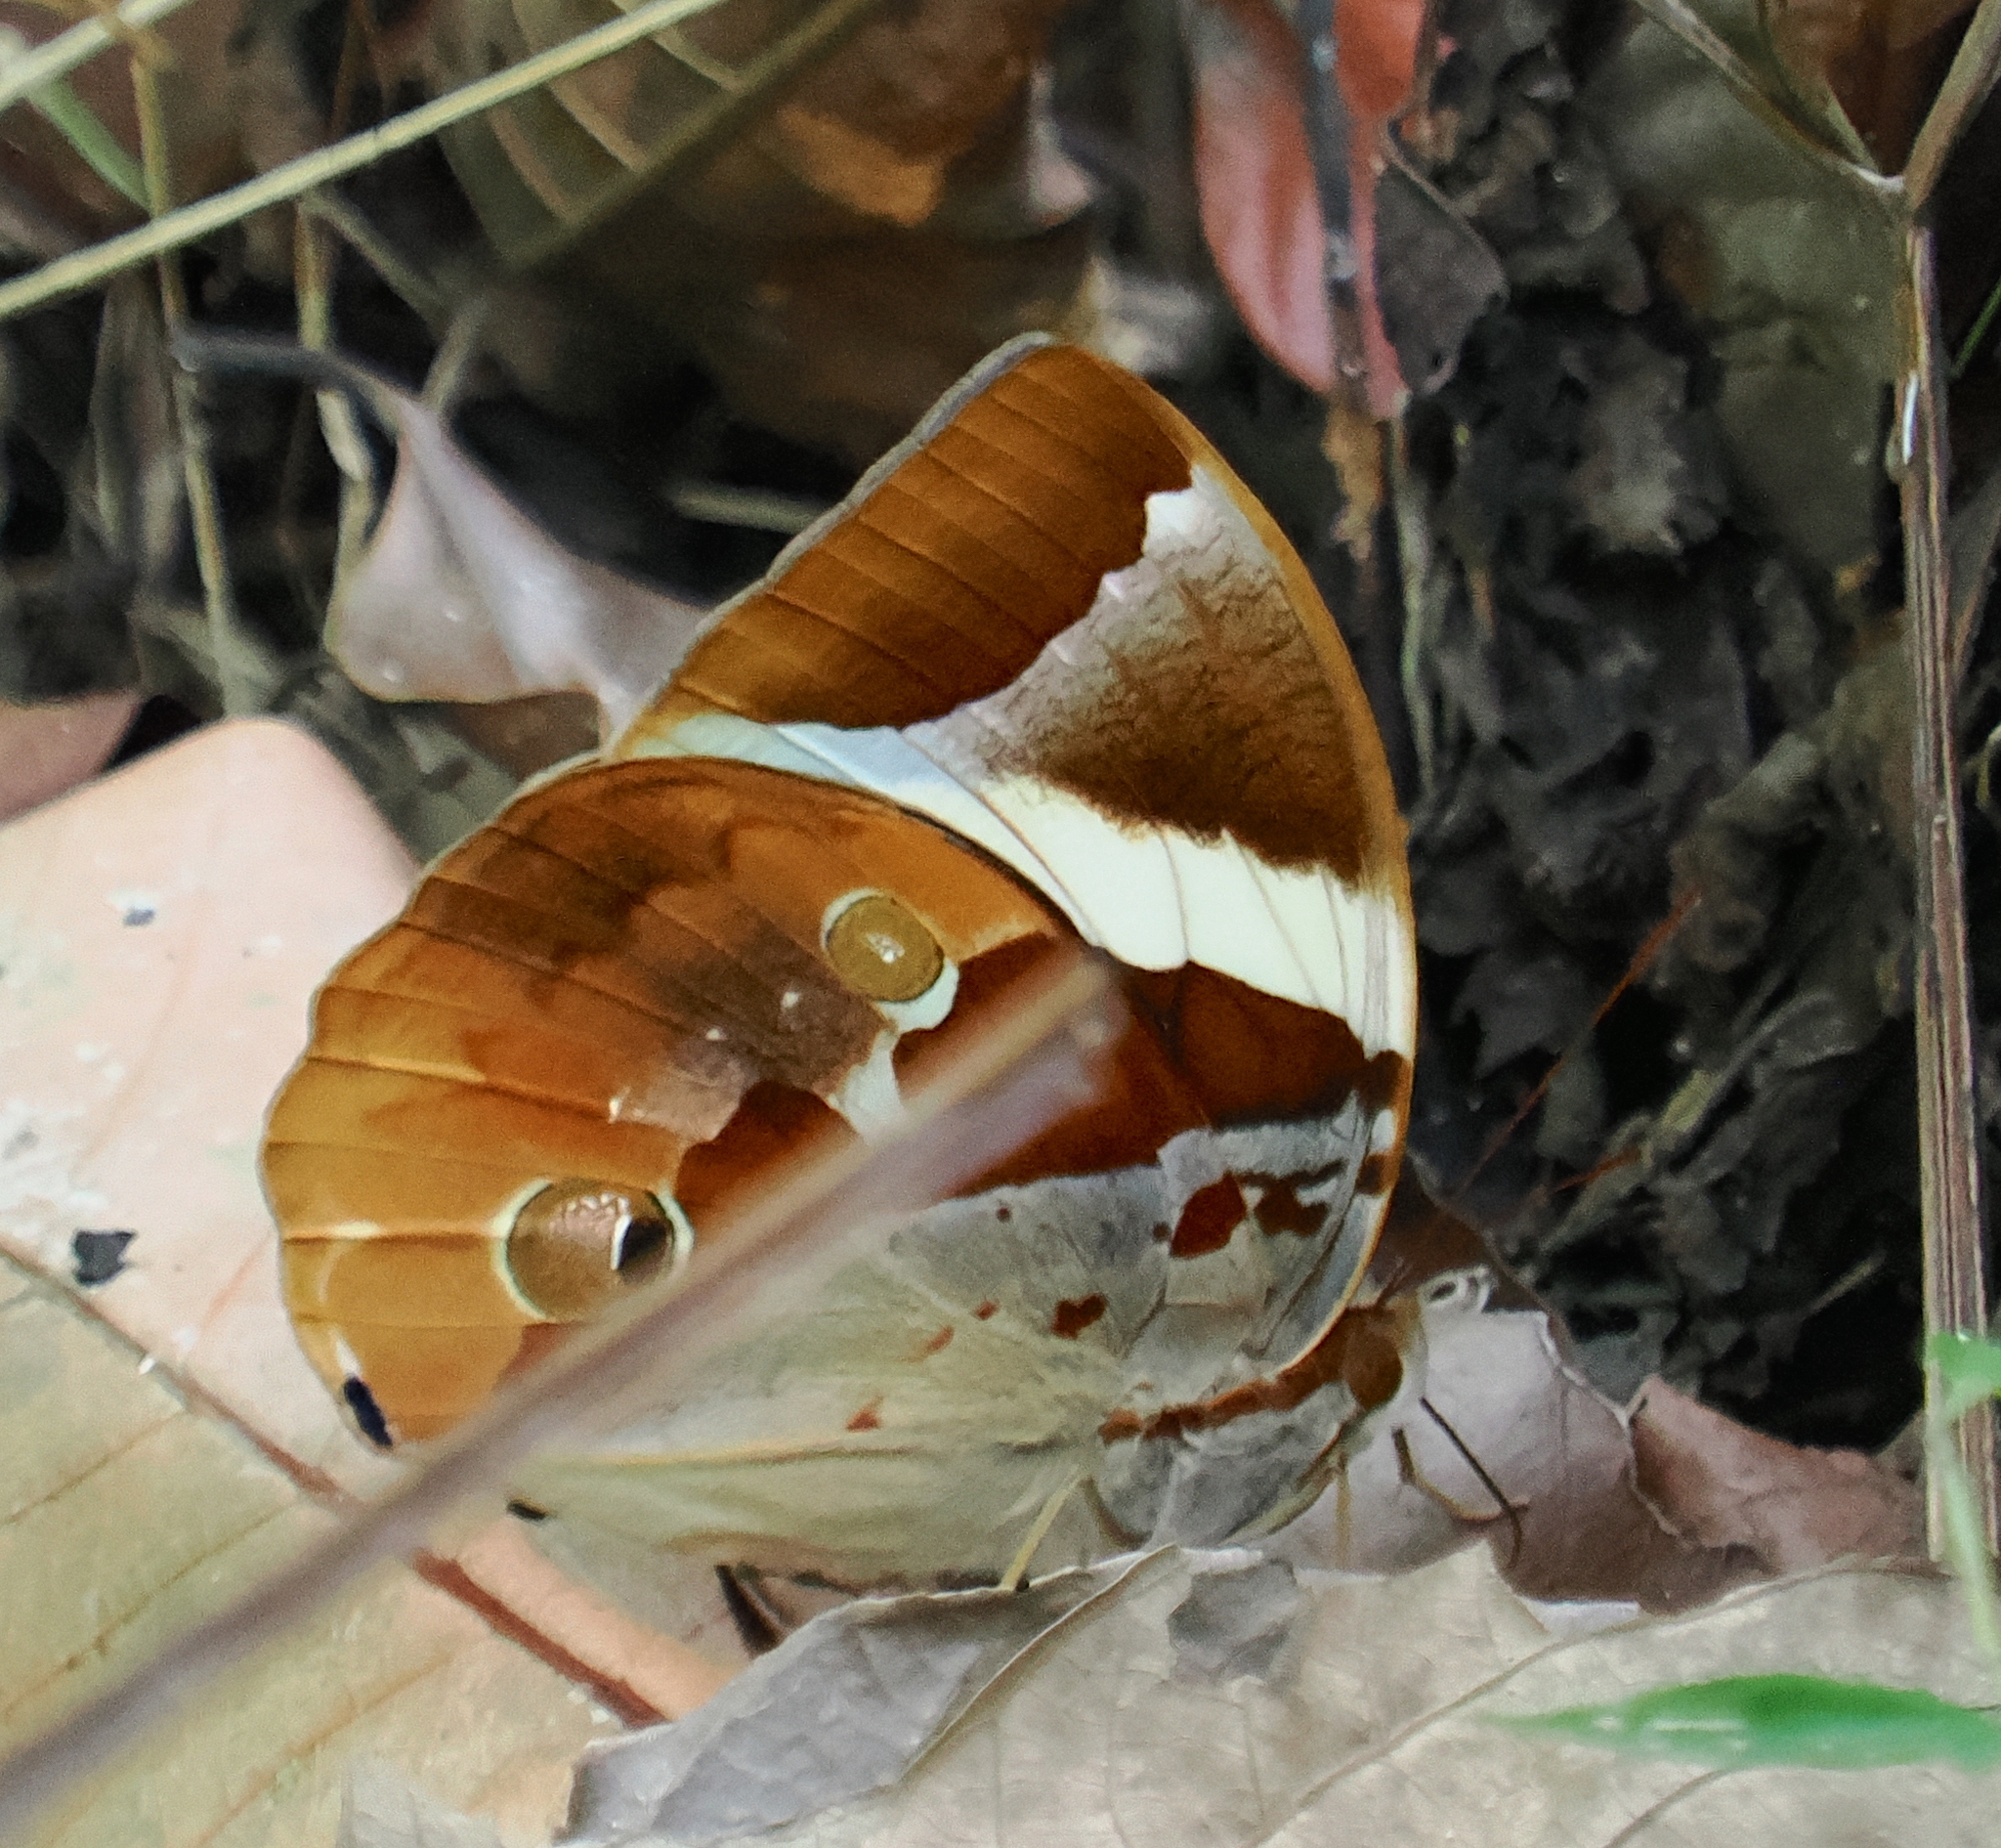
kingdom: Animalia
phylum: Arthropoda
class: Insecta
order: Lepidoptera
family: Nymphalidae
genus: Thauria
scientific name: Thauria aliris
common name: Tufted jungle king
